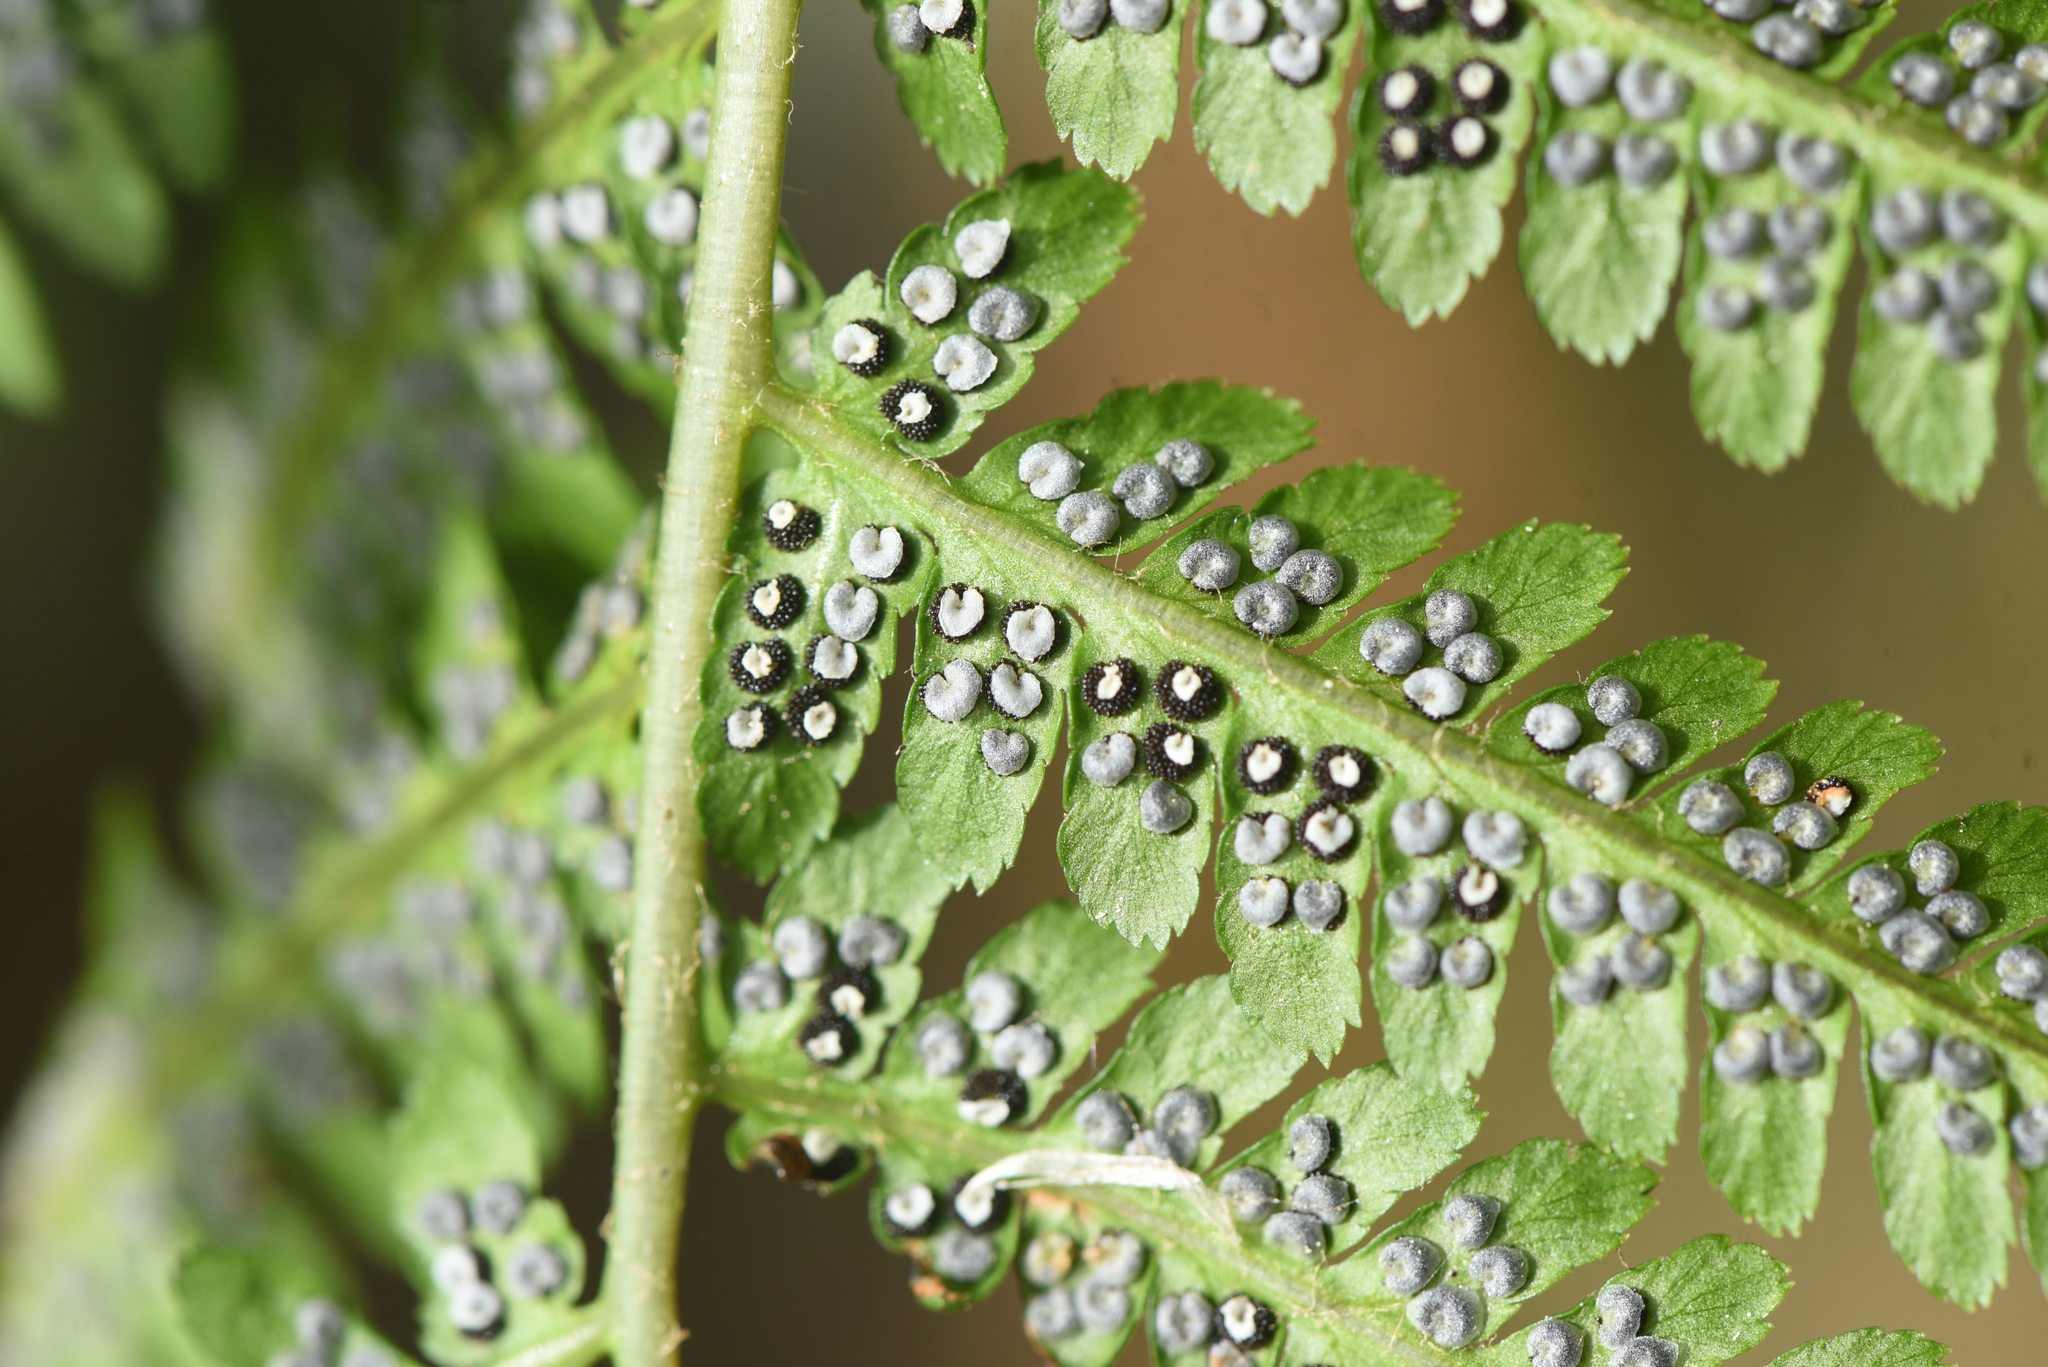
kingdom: Plantae
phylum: Tracheophyta
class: Polypodiopsida
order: Polypodiales
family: Dryopteridaceae
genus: Dryopteris
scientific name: Dryopteris filix-mas
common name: Male fern
